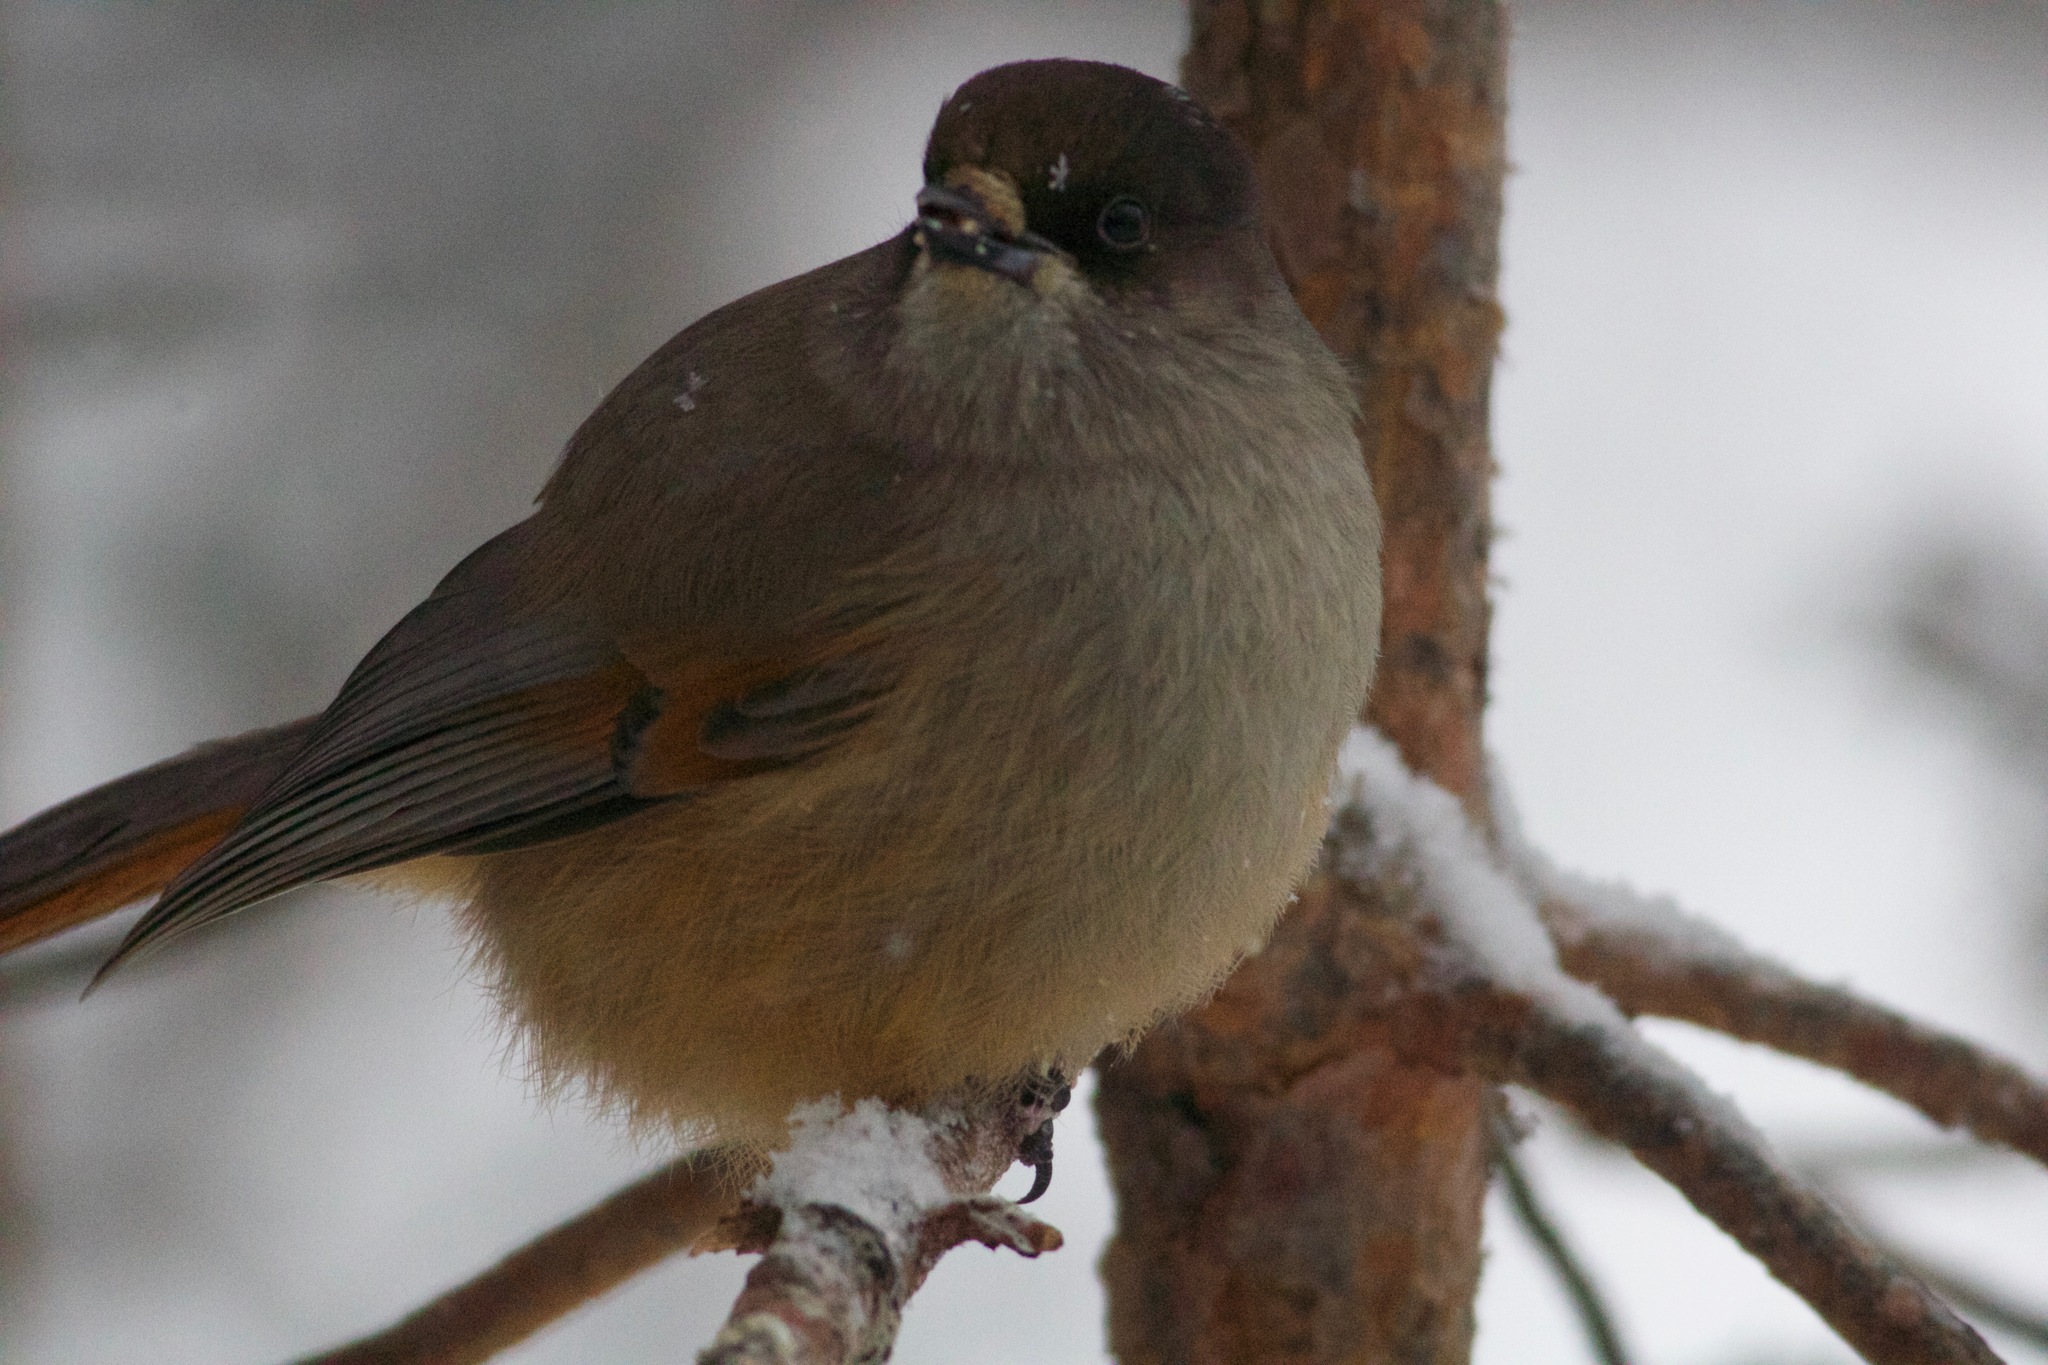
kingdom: Animalia
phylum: Chordata
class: Aves
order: Passeriformes
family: Corvidae
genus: Perisoreus
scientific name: Perisoreus infaustus
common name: Siberian jay
